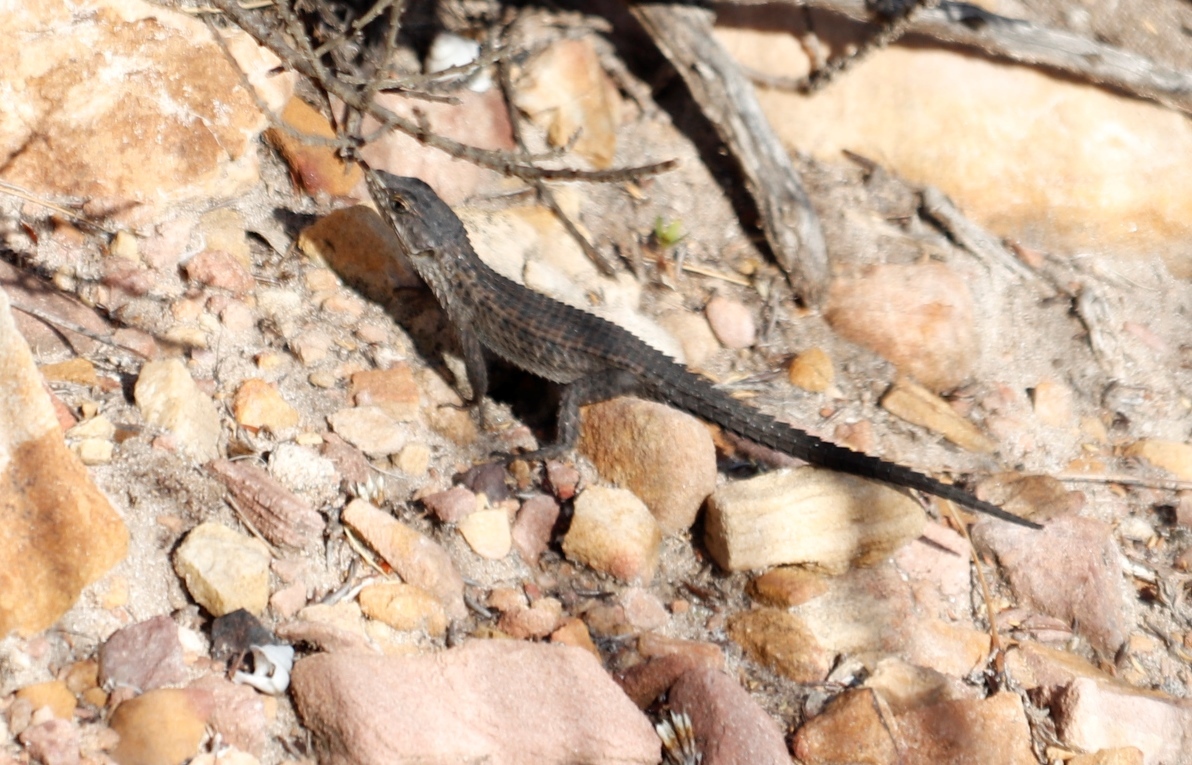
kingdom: Animalia
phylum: Chordata
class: Squamata
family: Cordylidae
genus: Cordylus
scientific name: Cordylus niger
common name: Black girdled lizard
